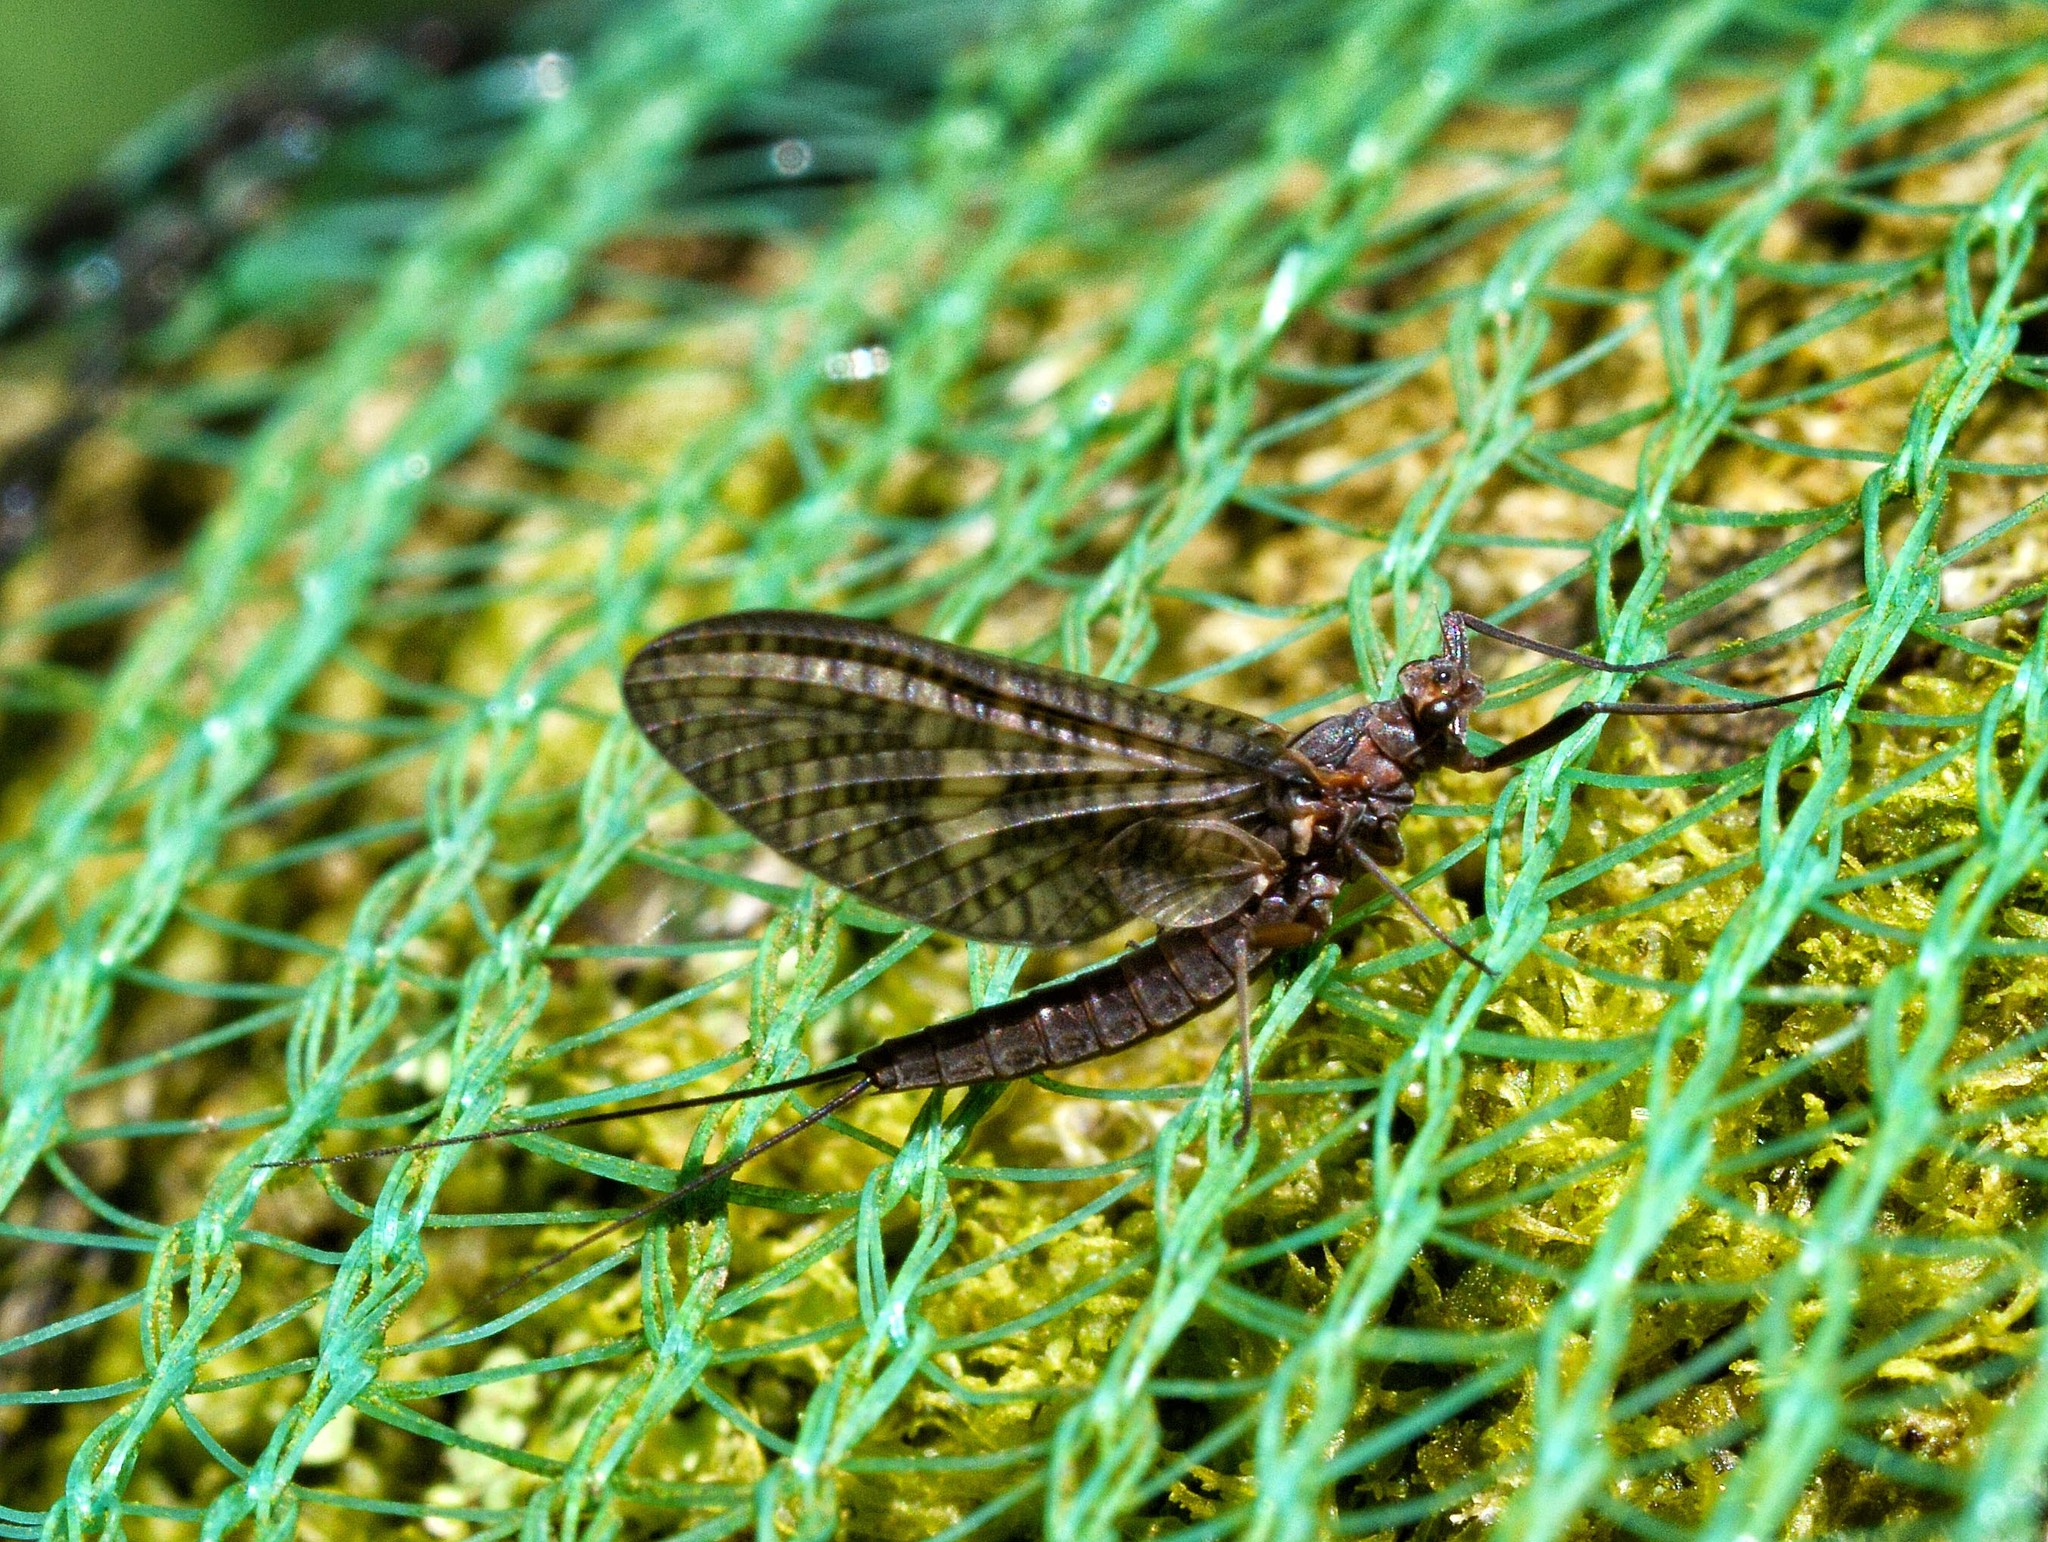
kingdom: Animalia
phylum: Arthropoda
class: Insecta
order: Ephemeroptera
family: Leptophlebiidae
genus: Paraleptophlebia
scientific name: Paraleptophlebia submarginata
